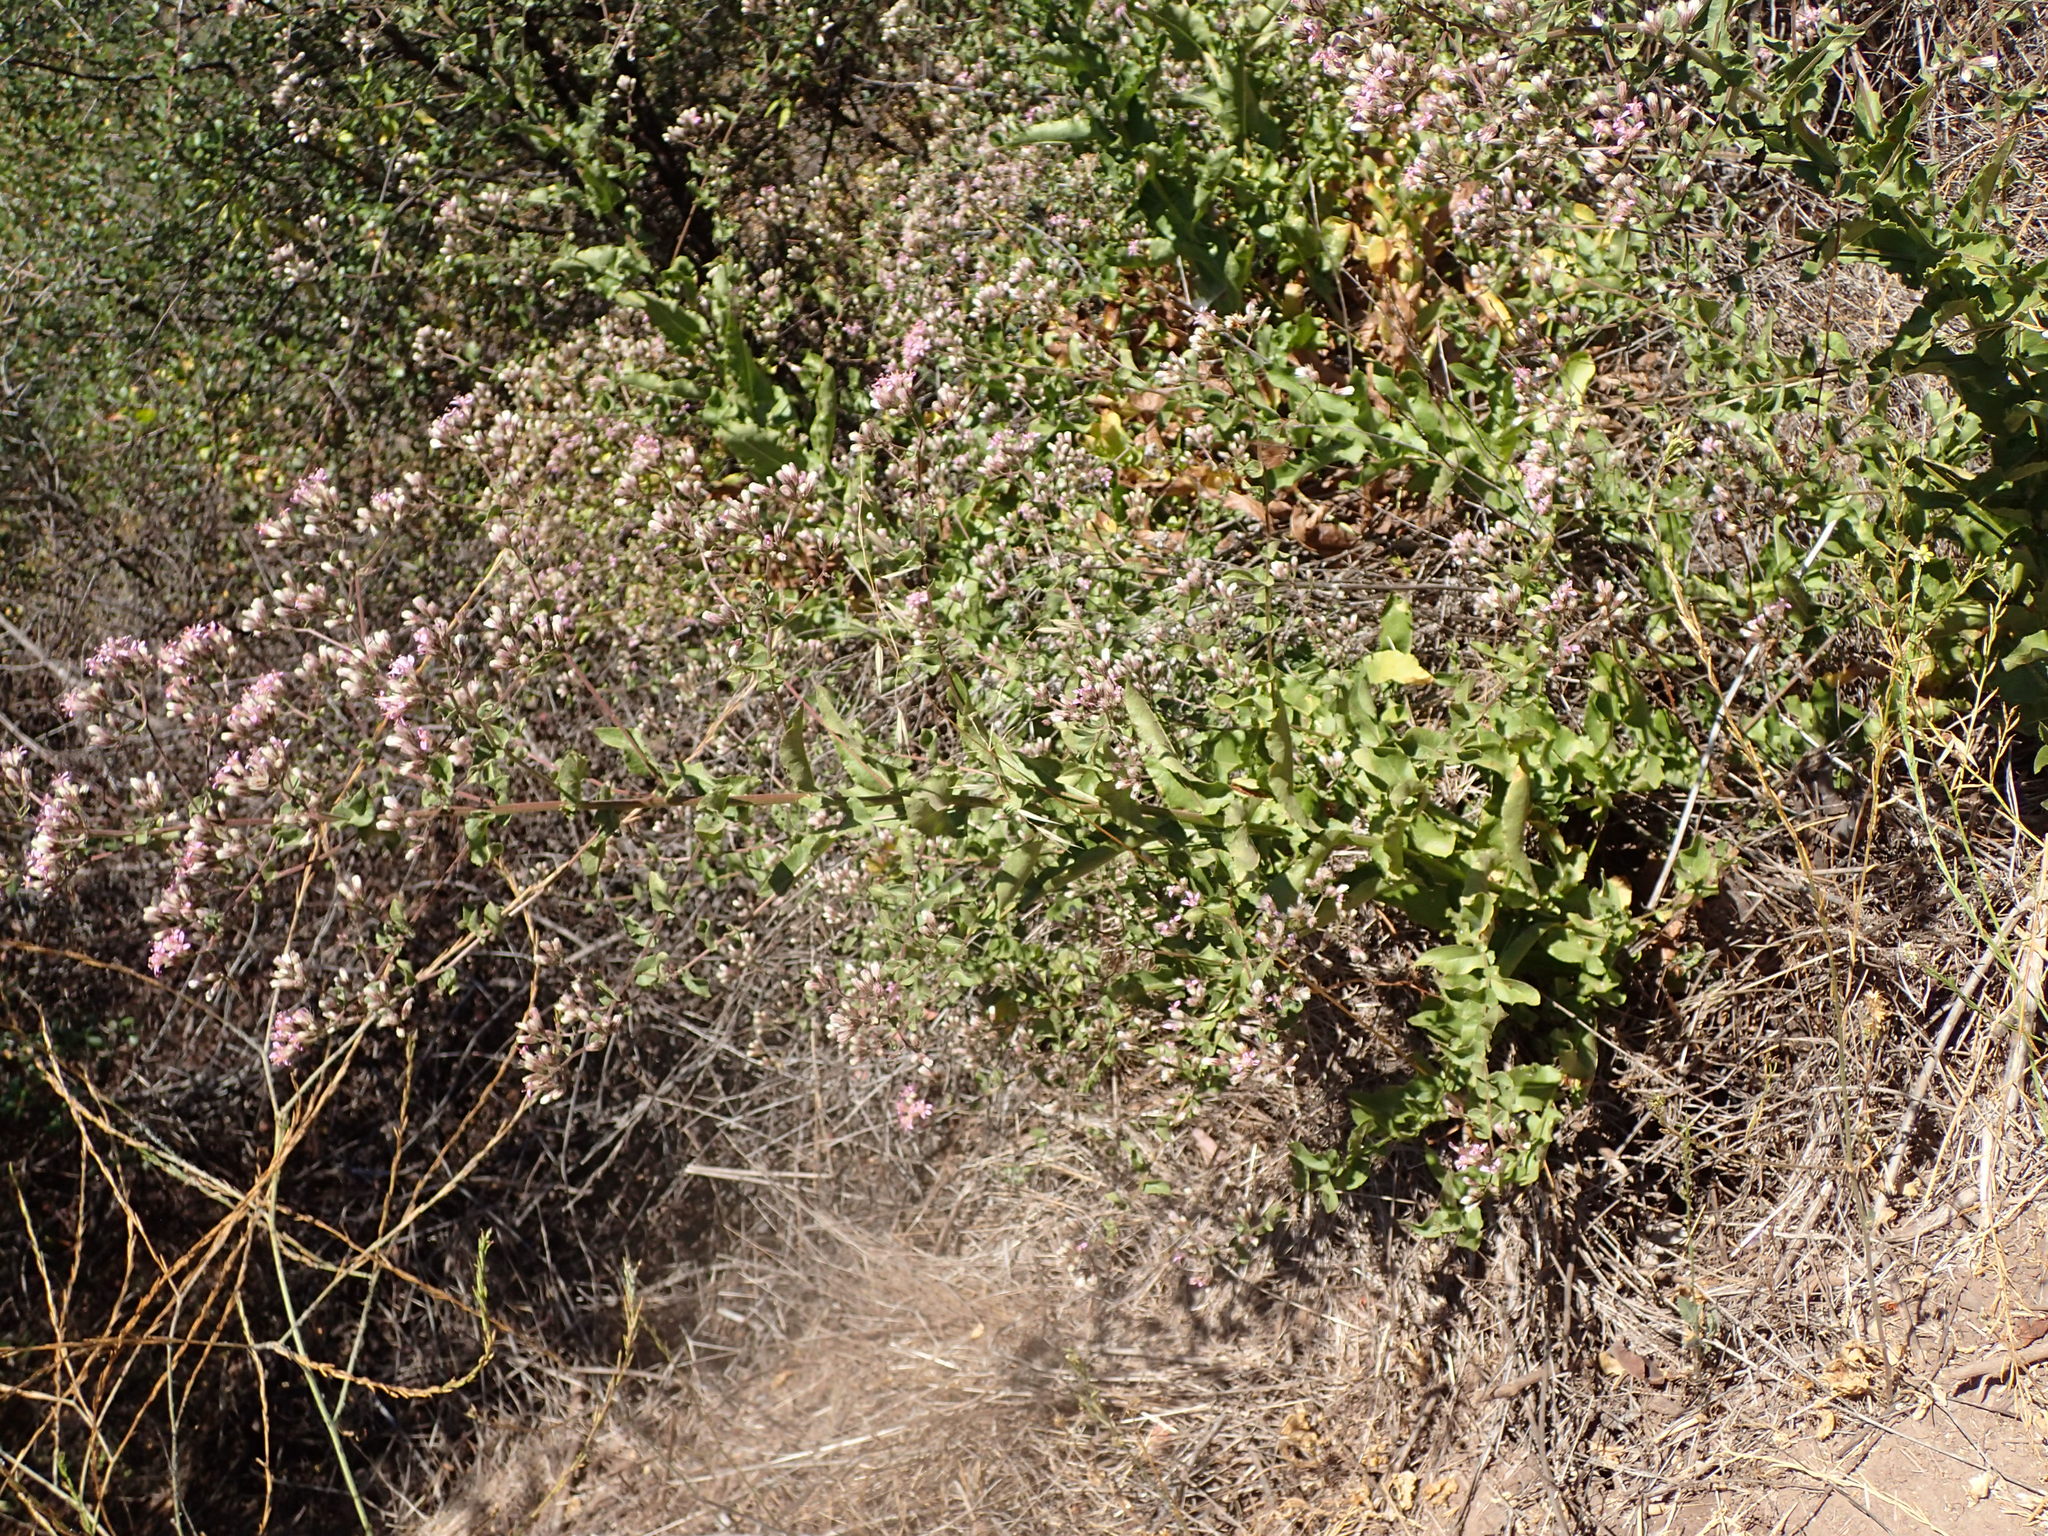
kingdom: Plantae
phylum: Tracheophyta
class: Magnoliopsida
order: Asterales
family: Asteraceae
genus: Acourtia
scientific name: Acourtia microcephala
